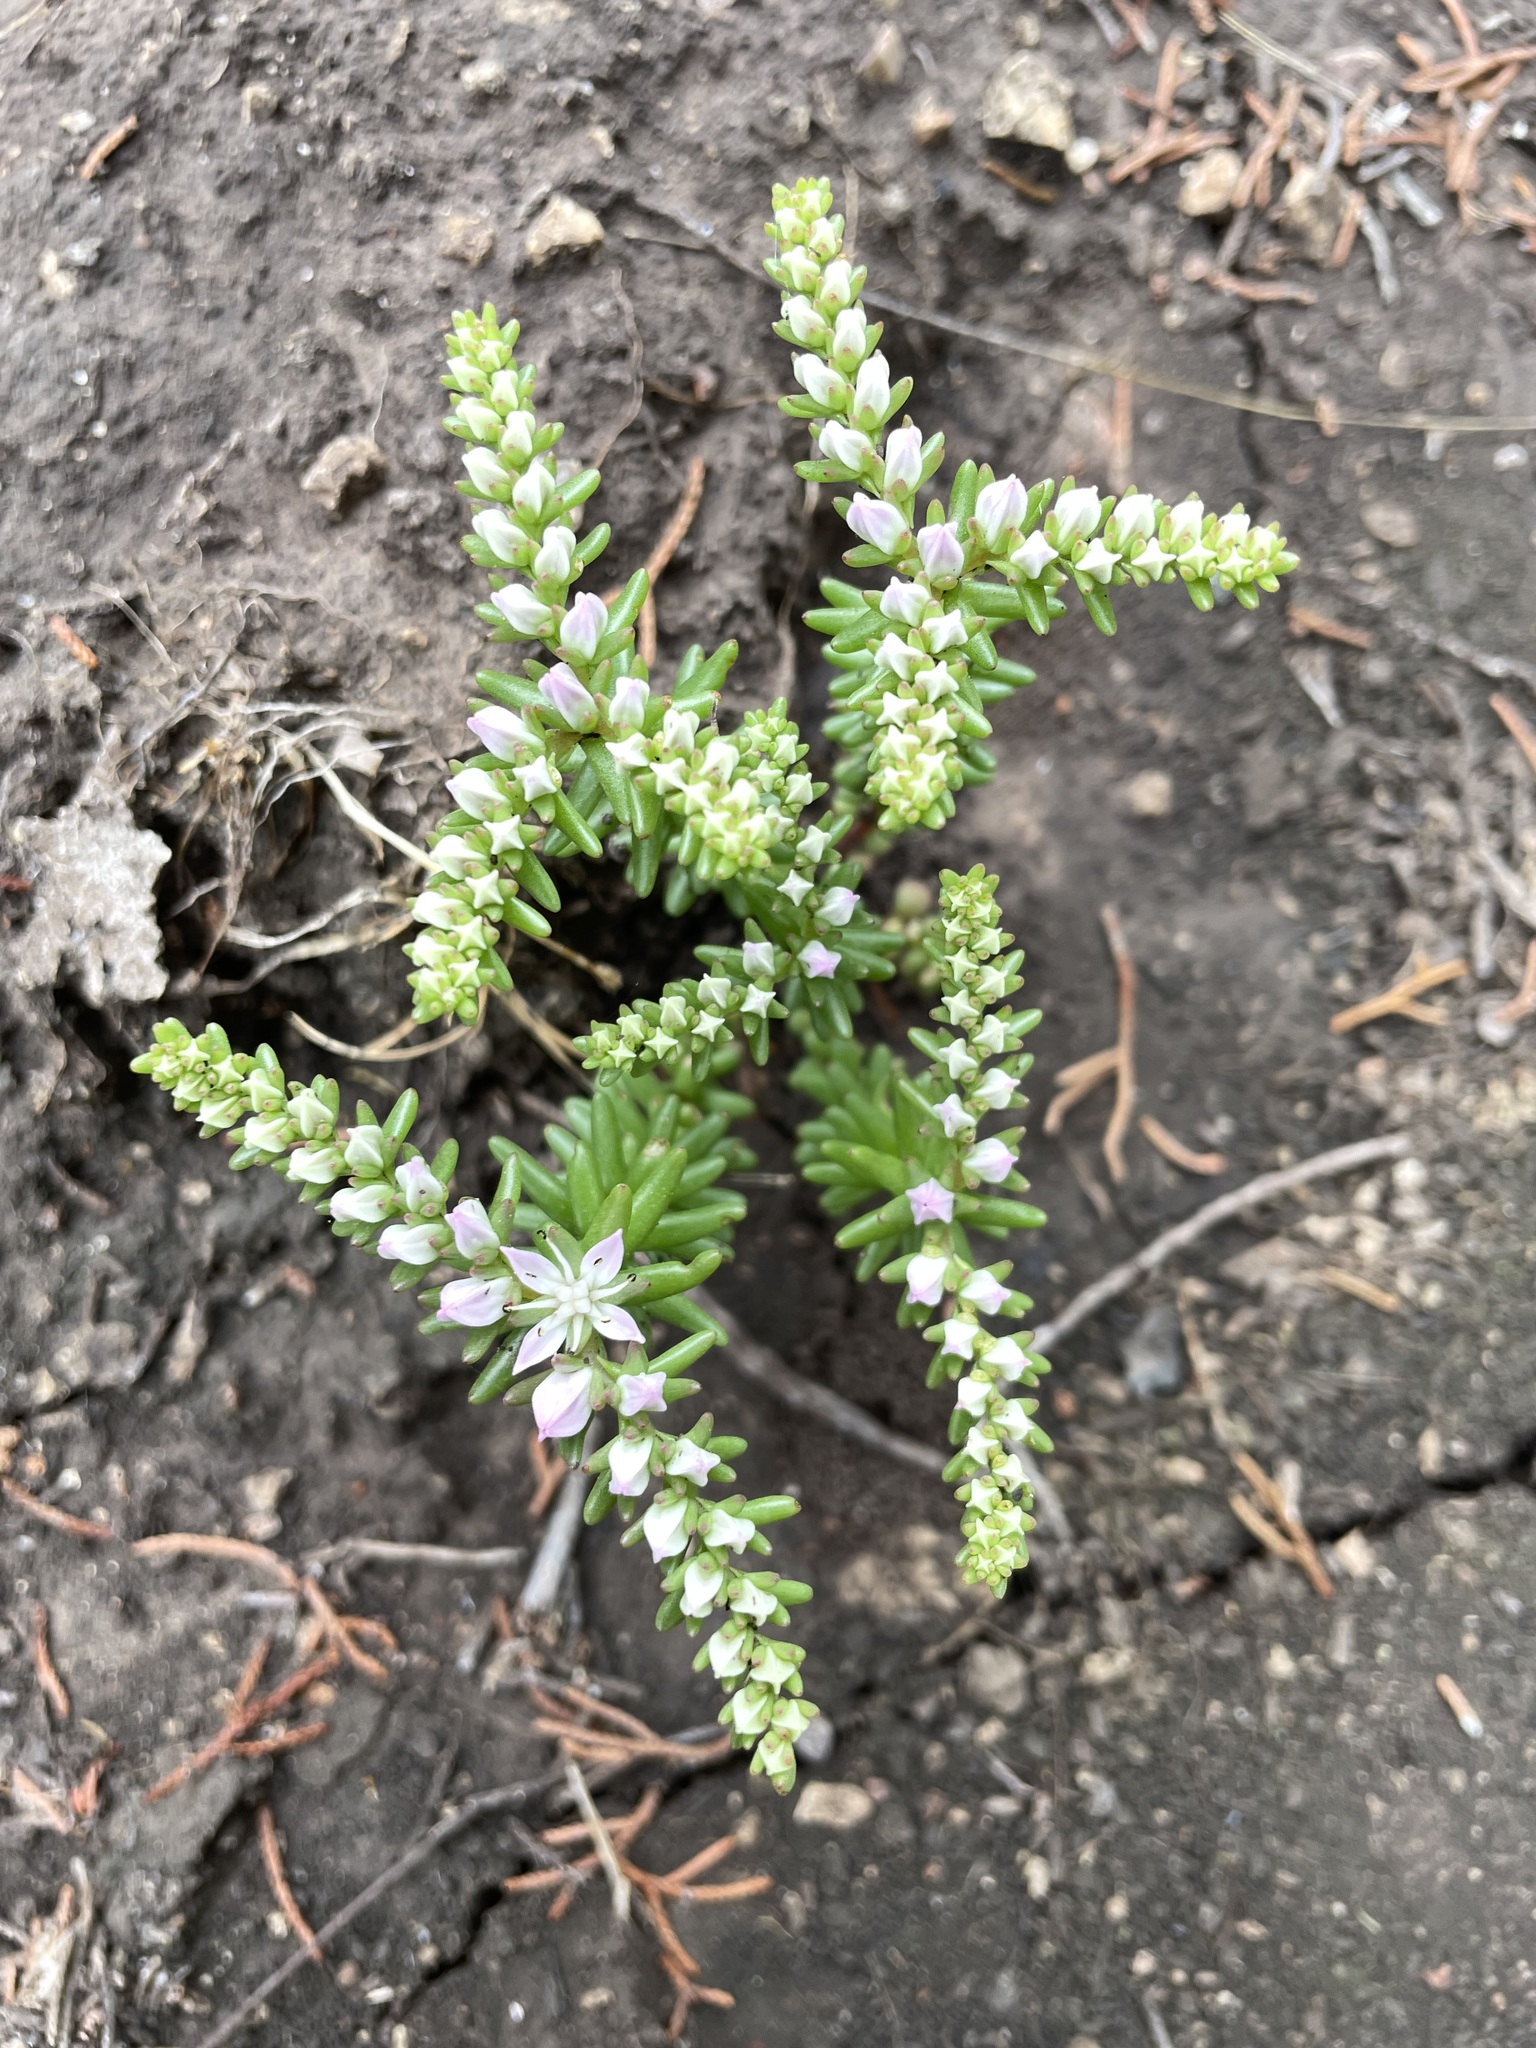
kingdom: Plantae
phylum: Tracheophyta
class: Magnoliopsida
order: Saxifragales
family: Crassulaceae
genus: Sedum
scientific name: Sedum pulchellum
